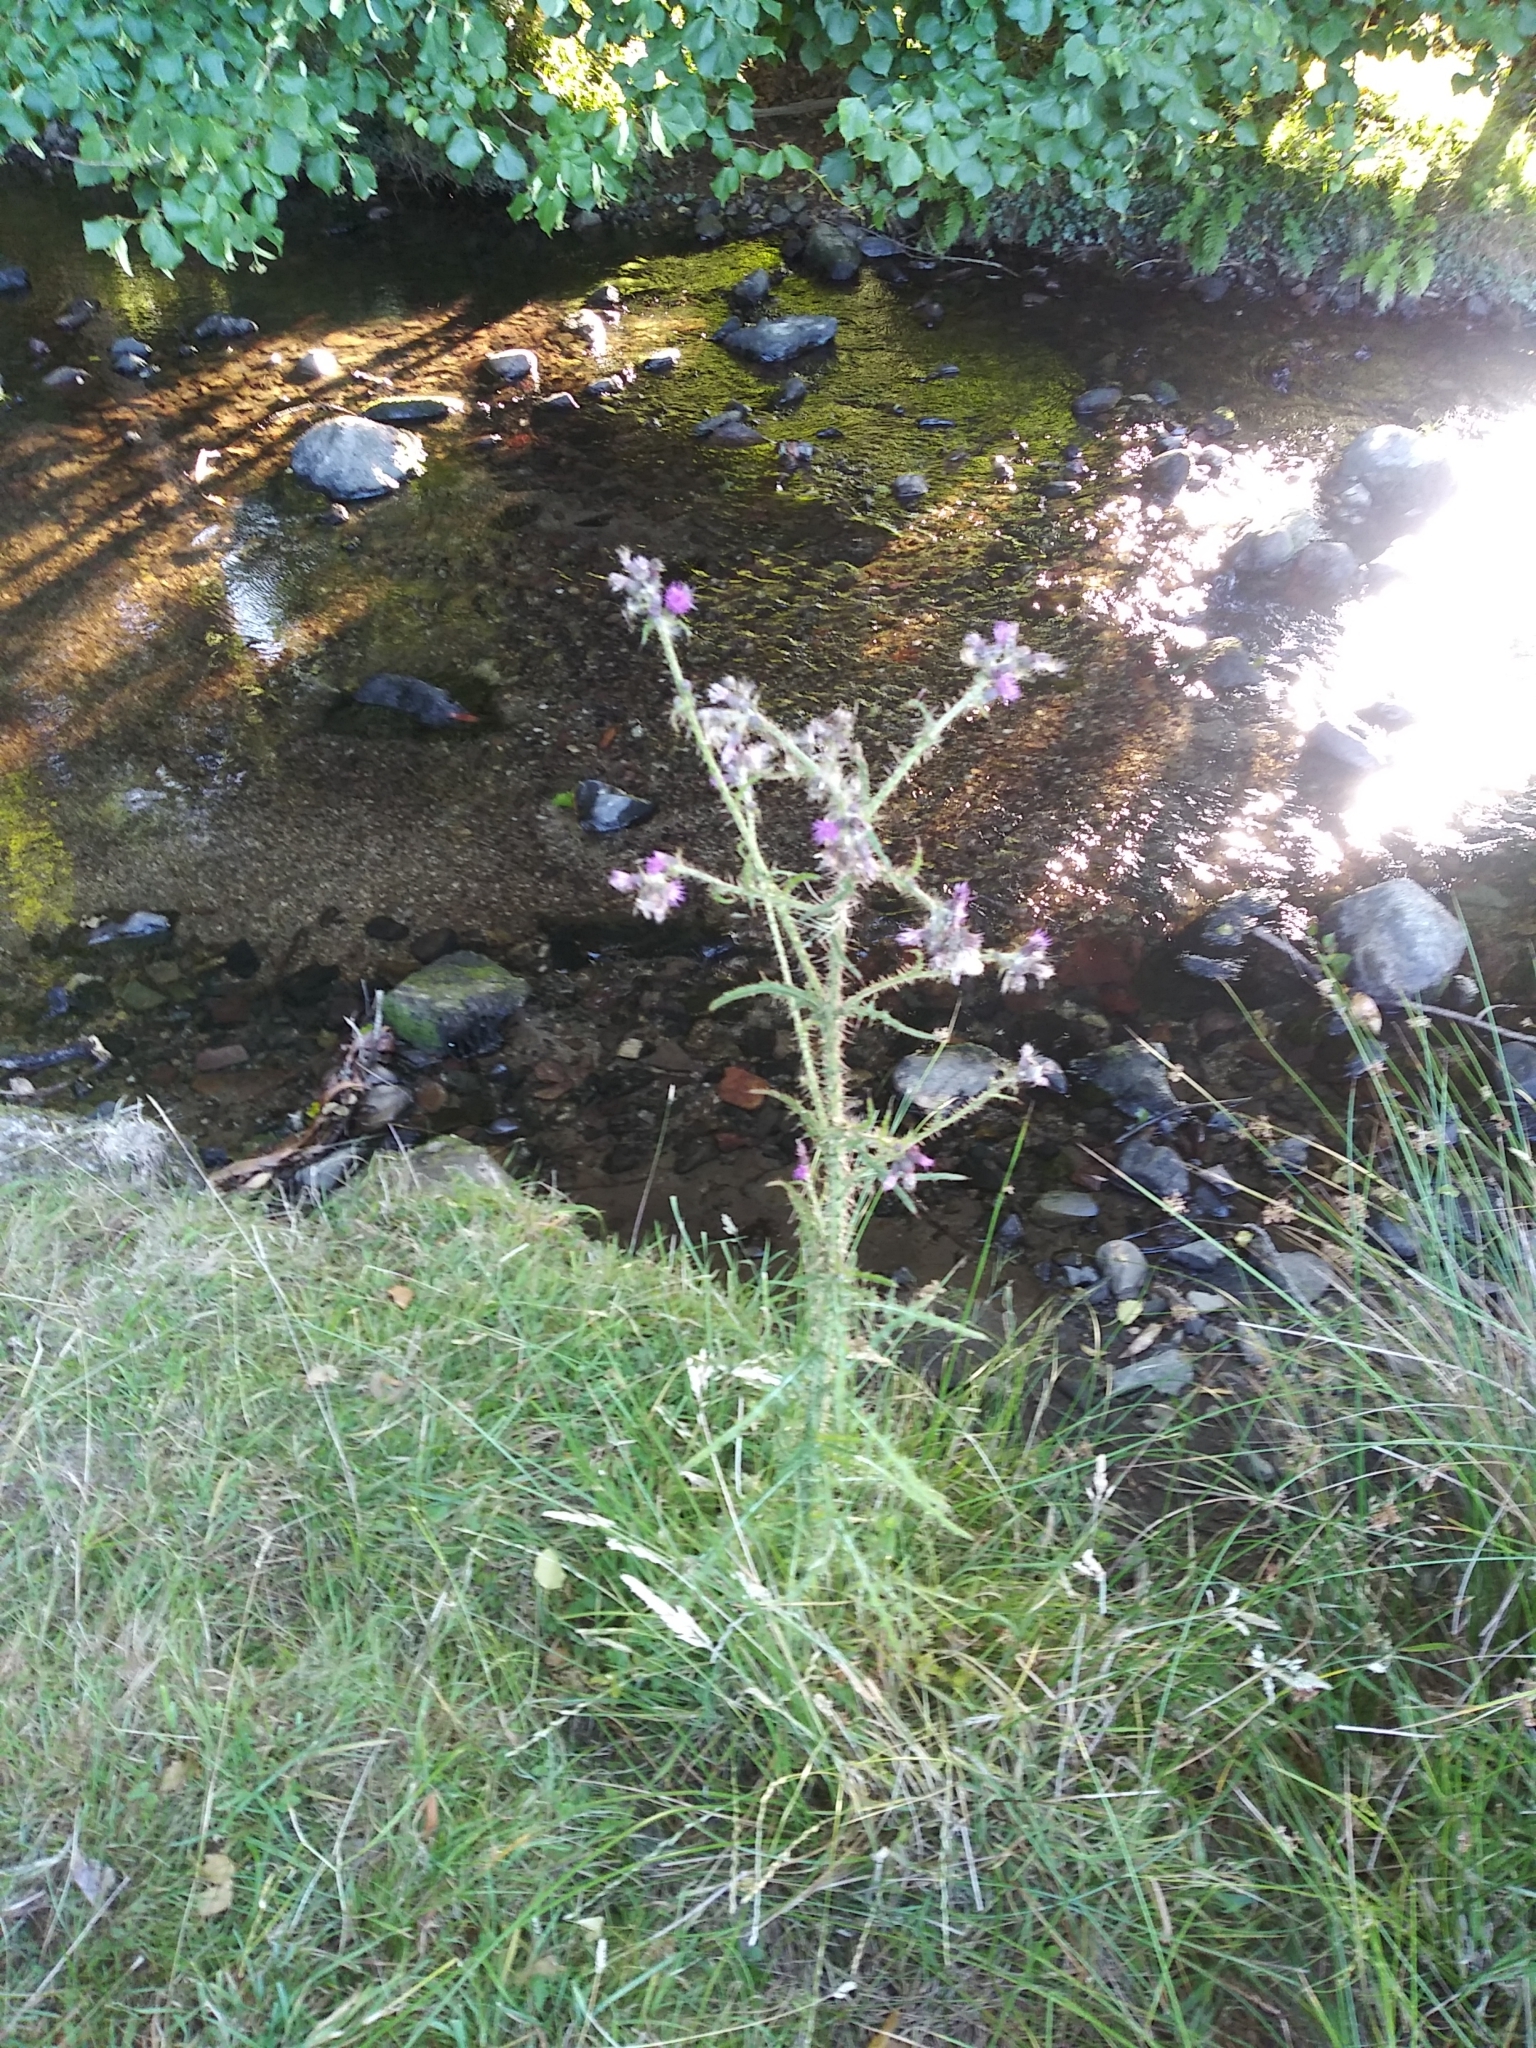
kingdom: Plantae
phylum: Tracheophyta
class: Magnoliopsida
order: Asterales
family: Asteraceae
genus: Cirsium
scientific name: Cirsium palustre
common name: Marsh thistle
